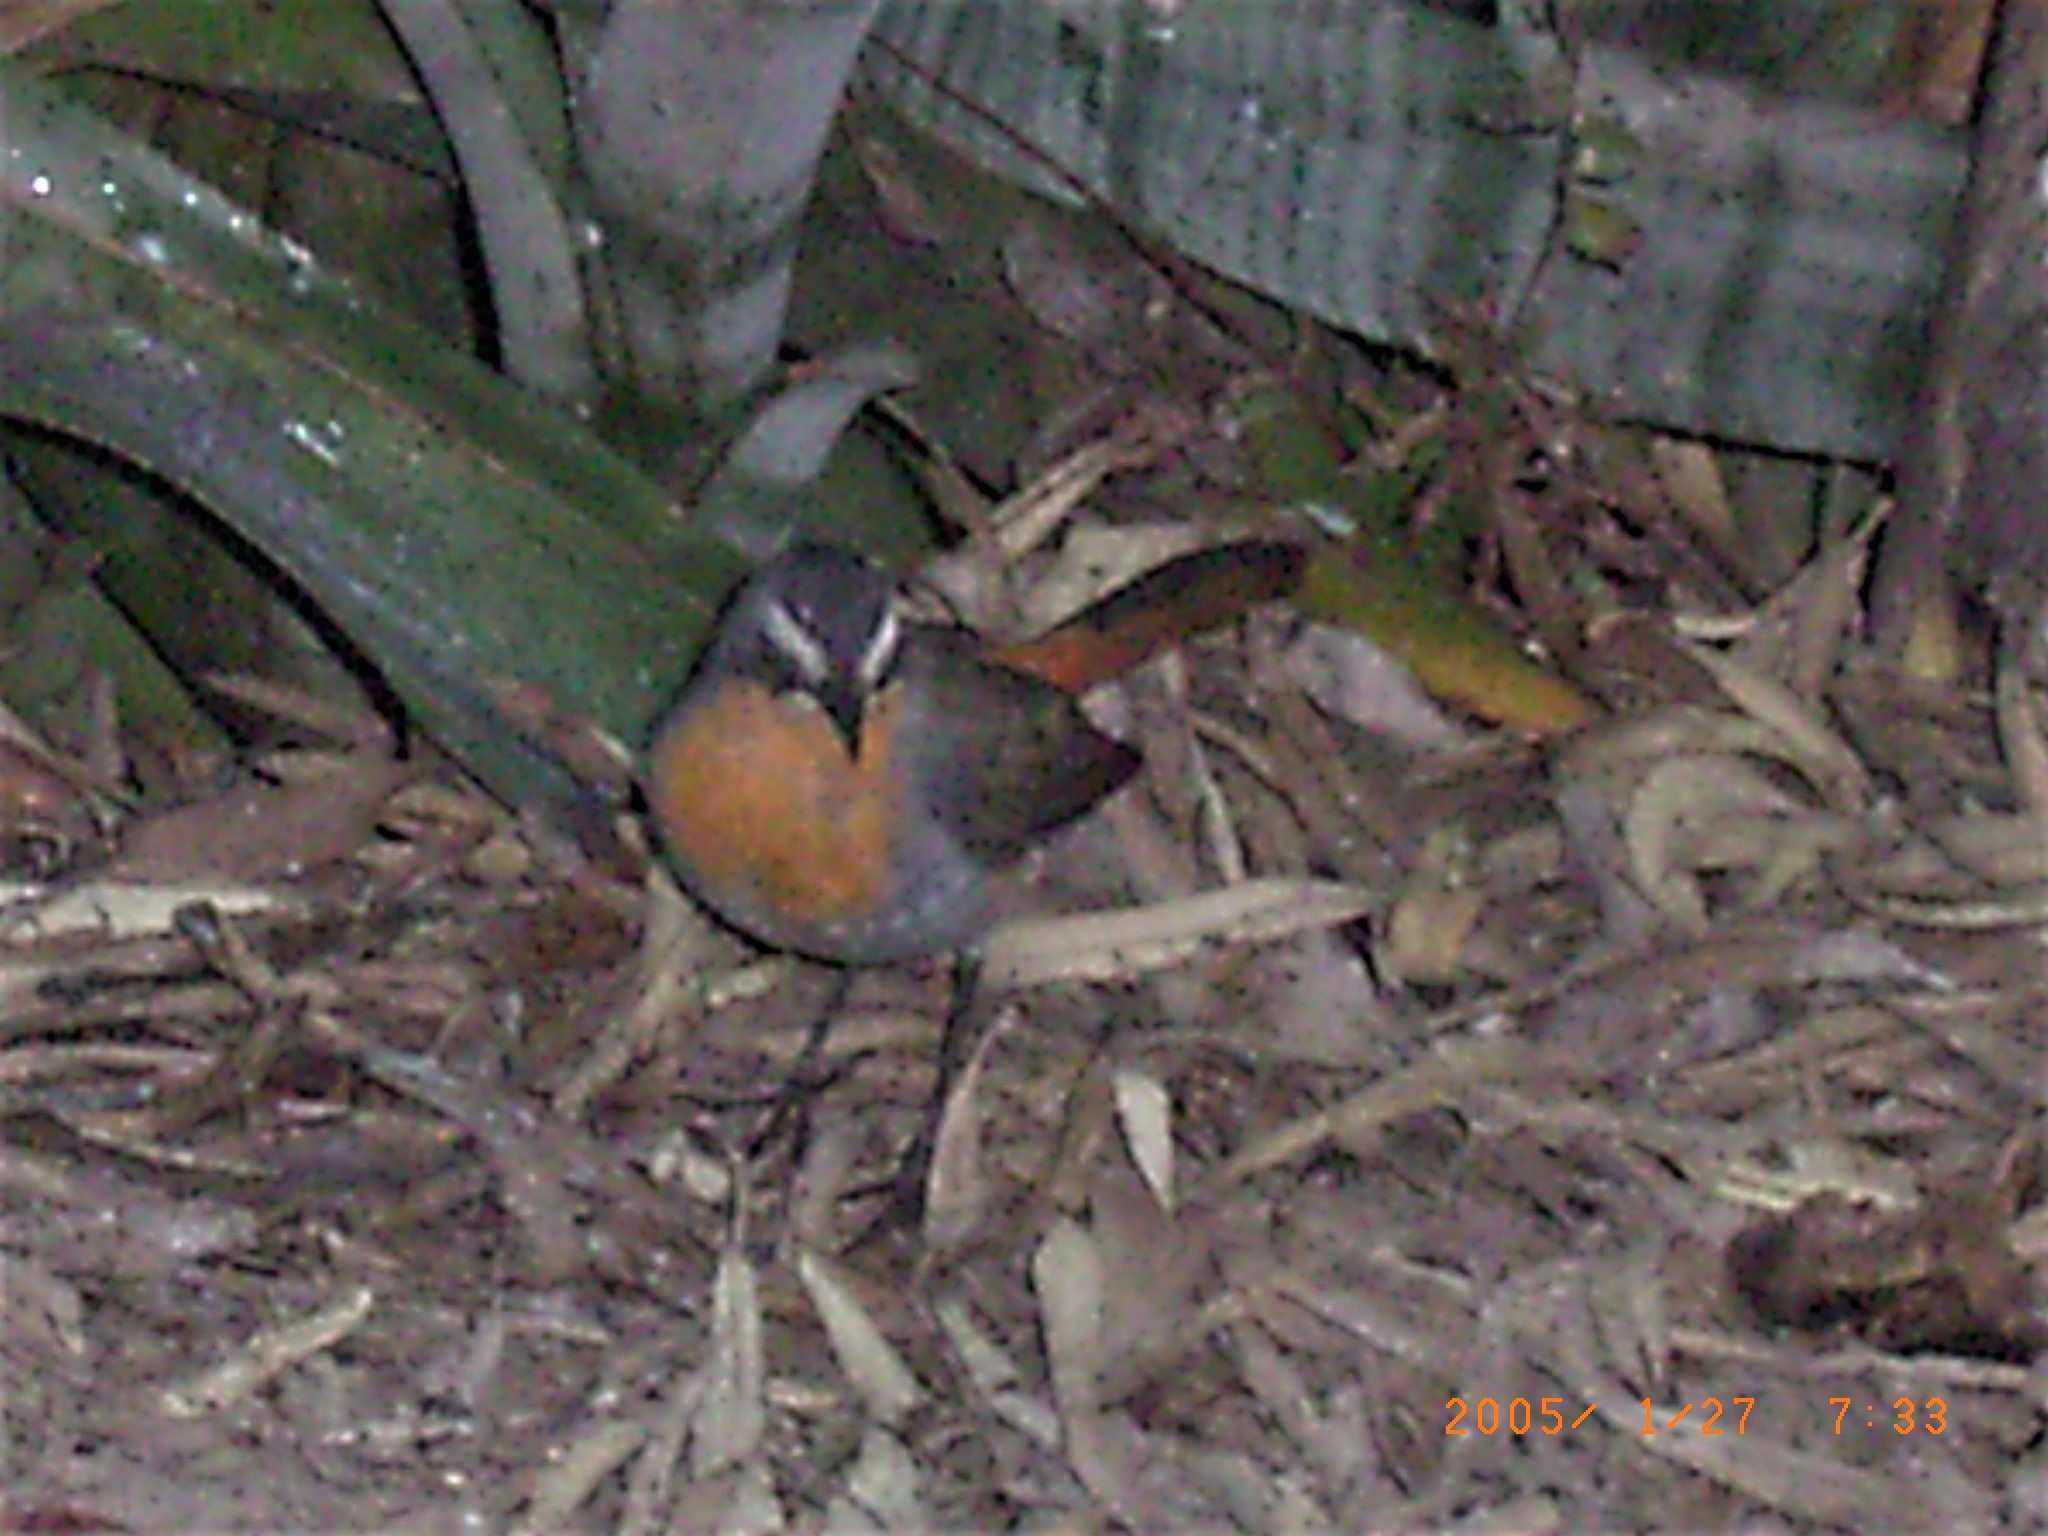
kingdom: Animalia
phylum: Chordata
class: Aves
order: Passeriformes
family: Muscicapidae
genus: Cossypha
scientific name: Cossypha caffra
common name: Cape robin-chat
